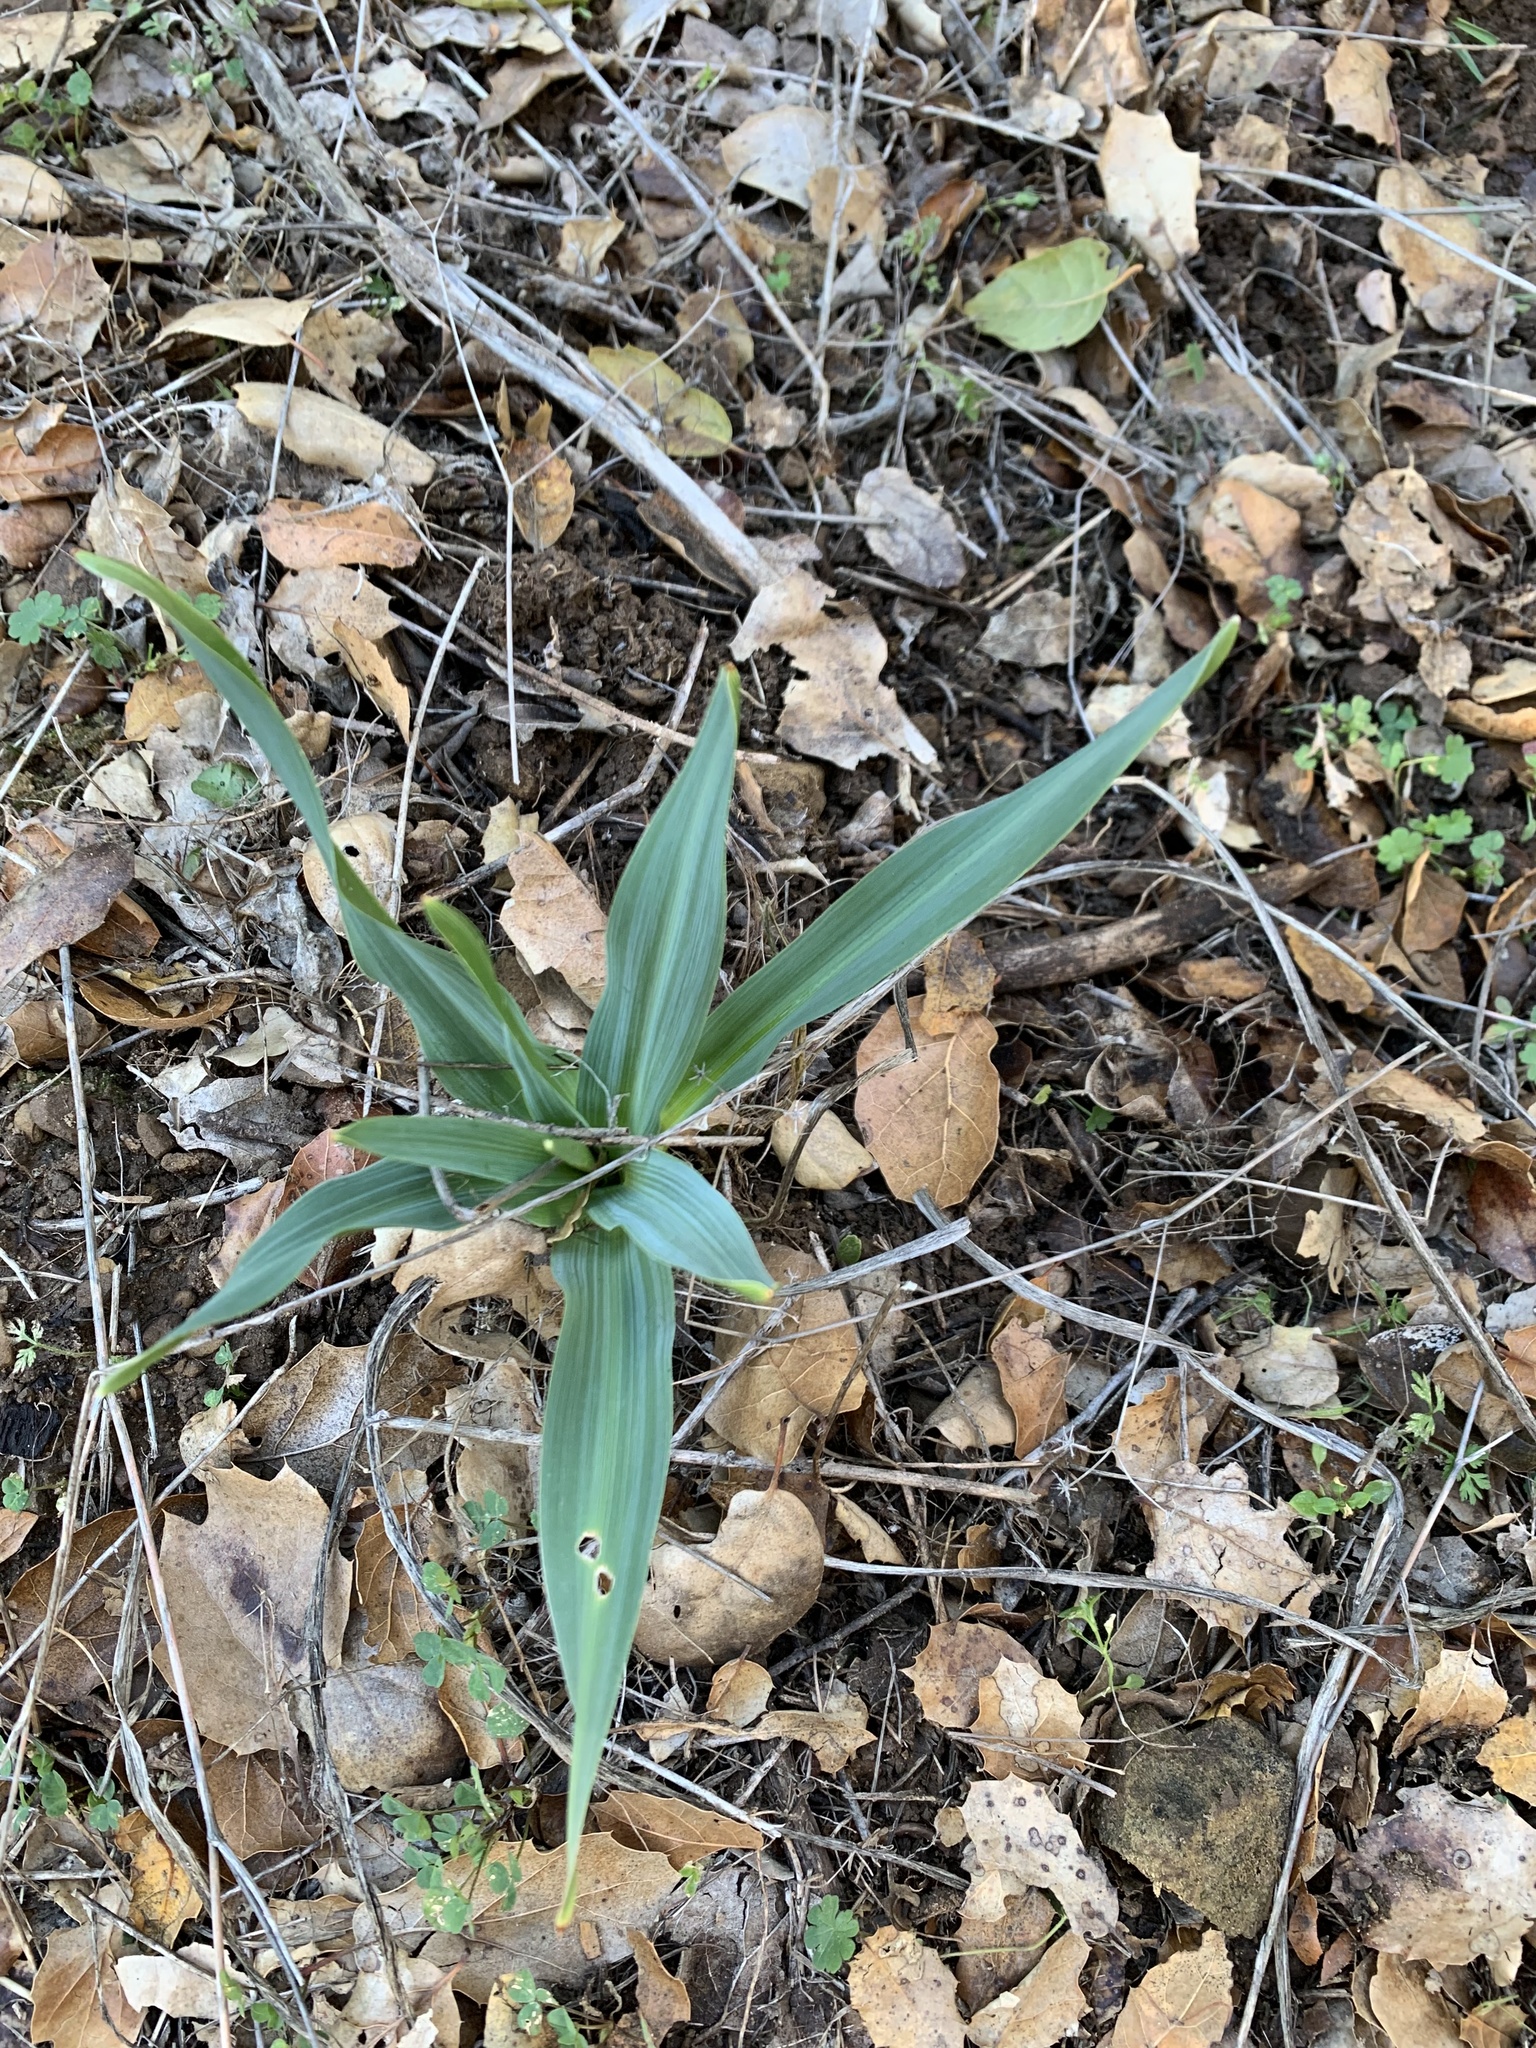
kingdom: Plantae
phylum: Tracheophyta
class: Liliopsida
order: Asparagales
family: Asparagaceae
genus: Chlorogalum
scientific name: Chlorogalum pomeridianum
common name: Amole
